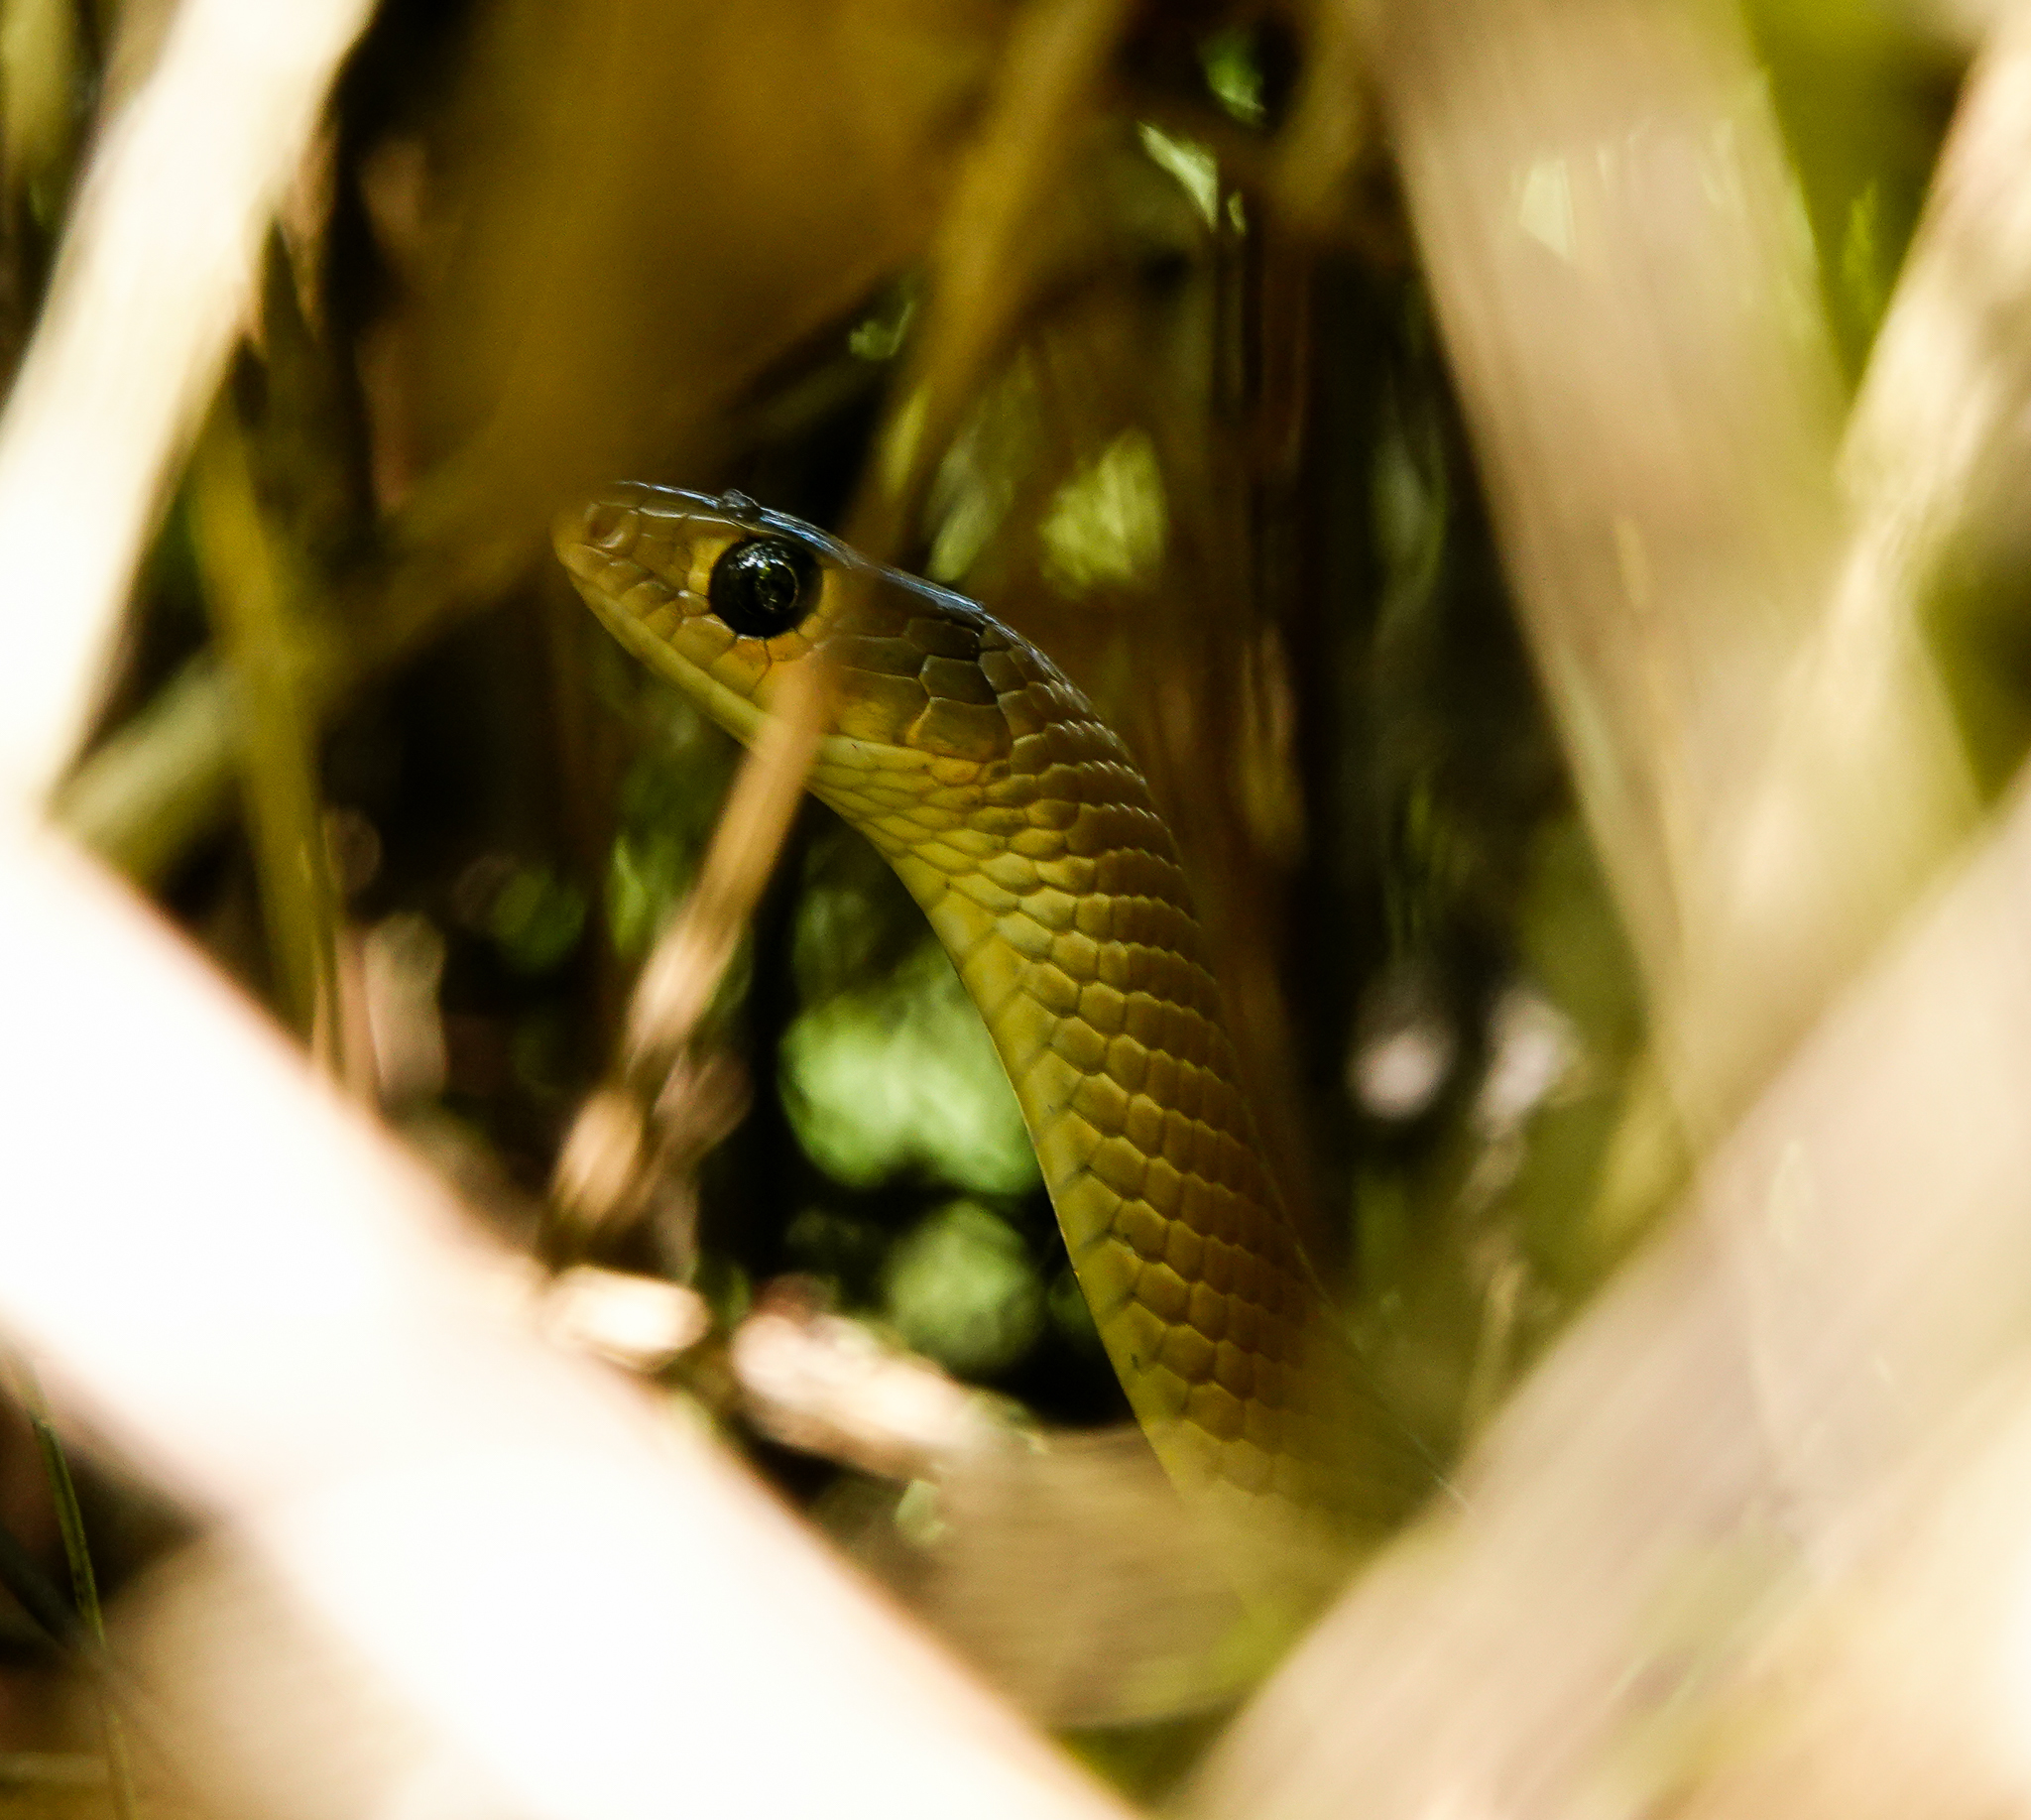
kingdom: Animalia
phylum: Chordata
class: Squamata
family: Colubridae
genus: Ptyas
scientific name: Ptyas korros
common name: Indo-chinese rat snake
